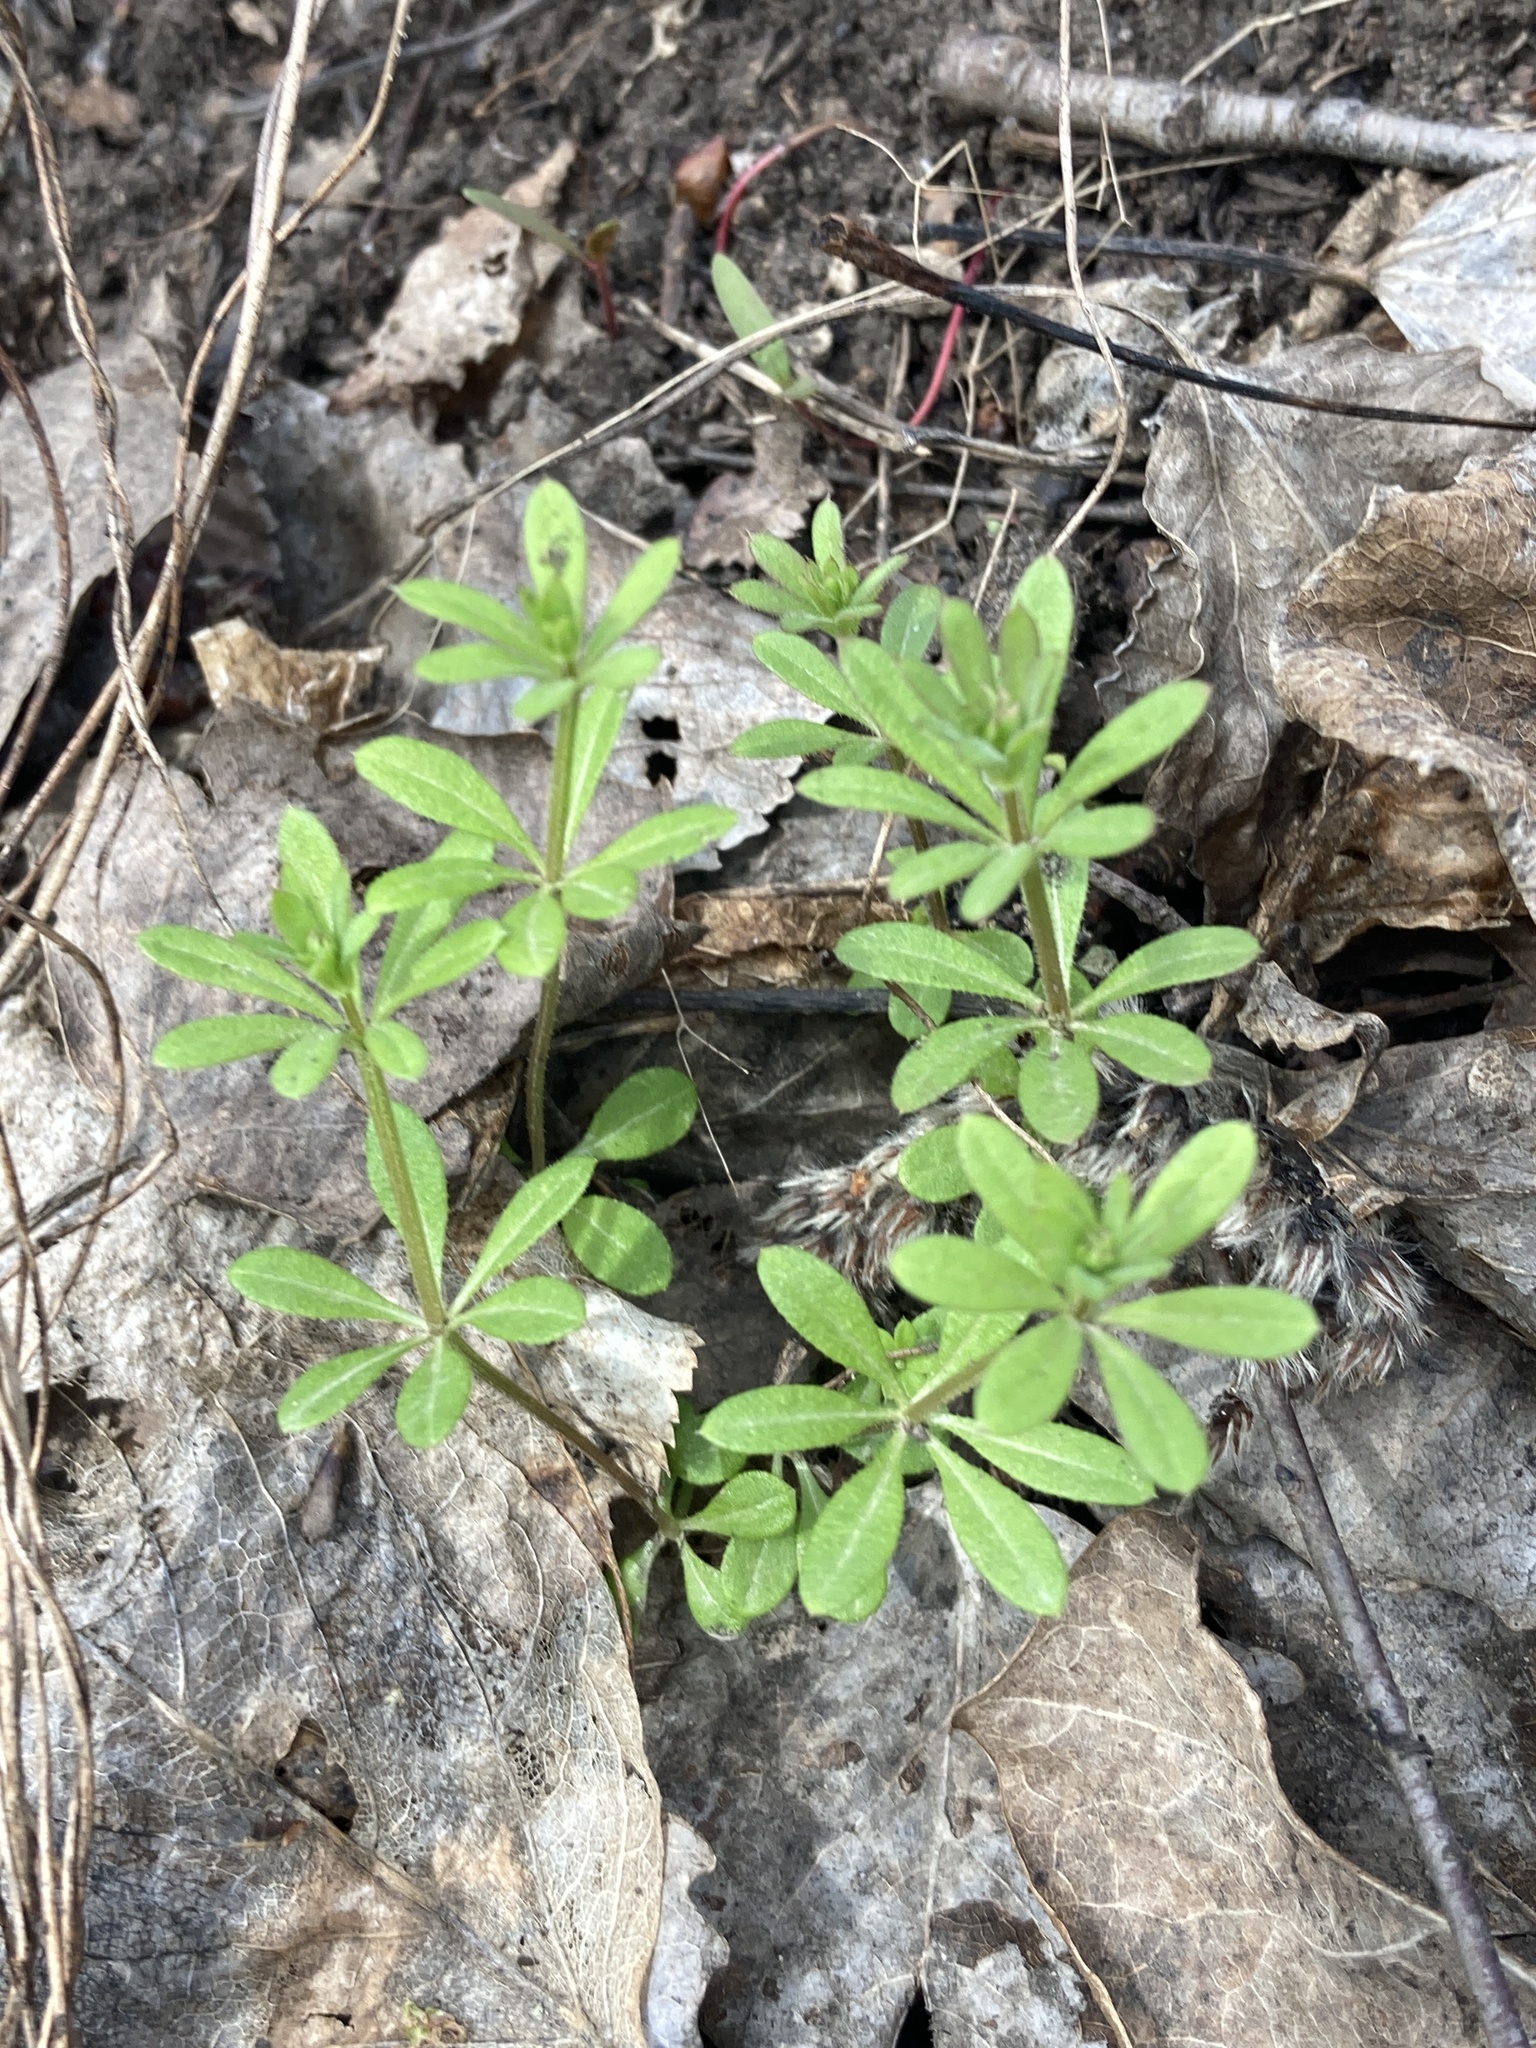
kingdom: Plantae
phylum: Tracheophyta
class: Magnoliopsida
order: Gentianales
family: Rubiaceae
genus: Galium
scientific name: Galium aparine
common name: Cleavers
